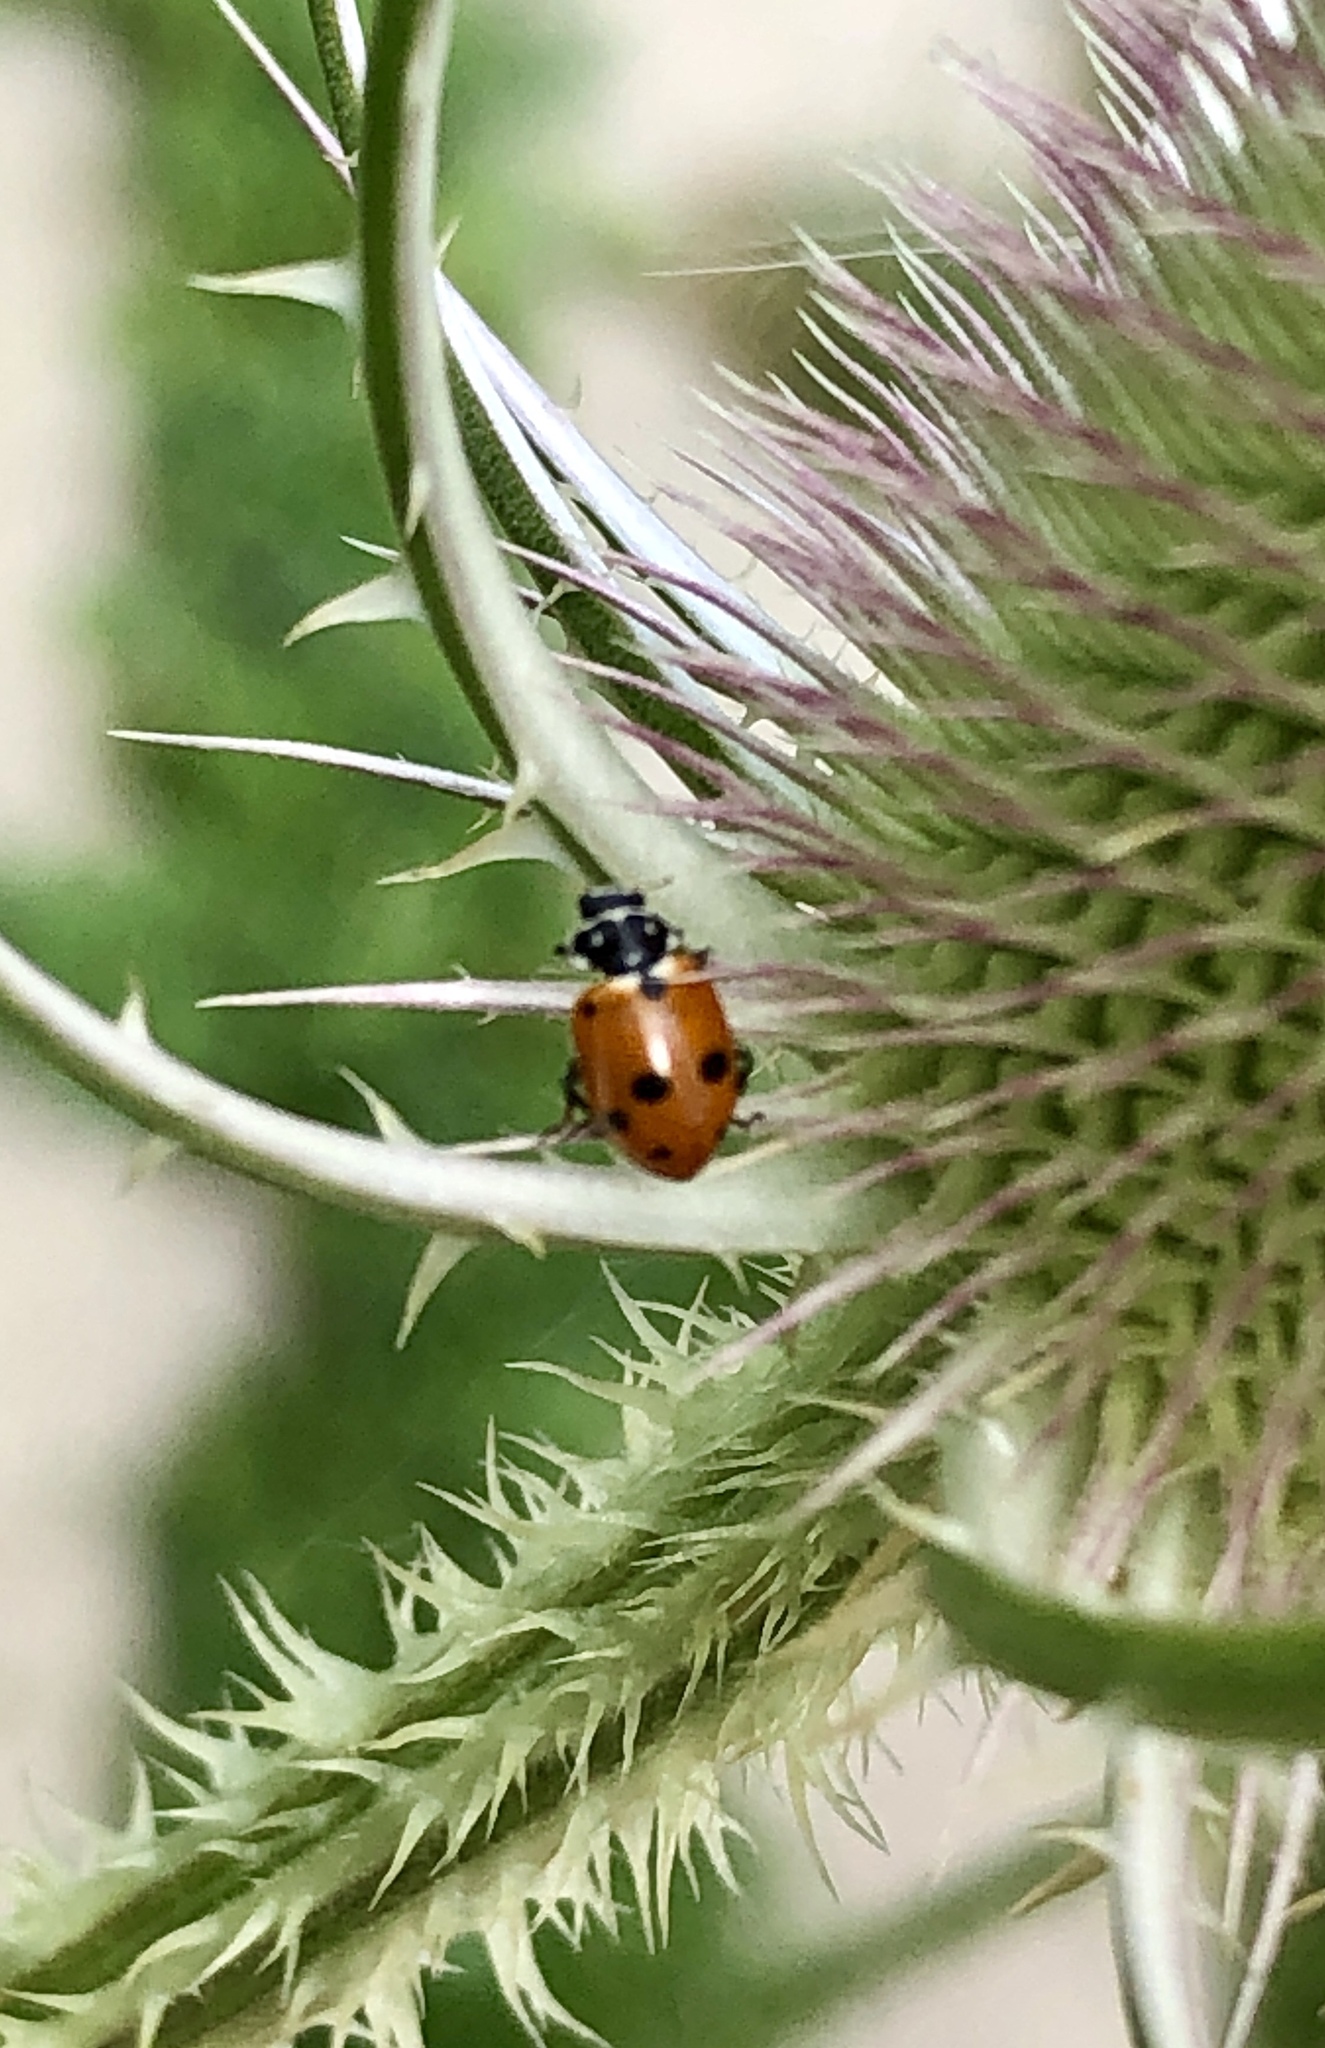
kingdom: Animalia
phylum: Arthropoda
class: Insecta
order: Coleoptera
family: Coccinellidae
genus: Hippodamia
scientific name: Hippodamia variegata
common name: Ladybird beetle
